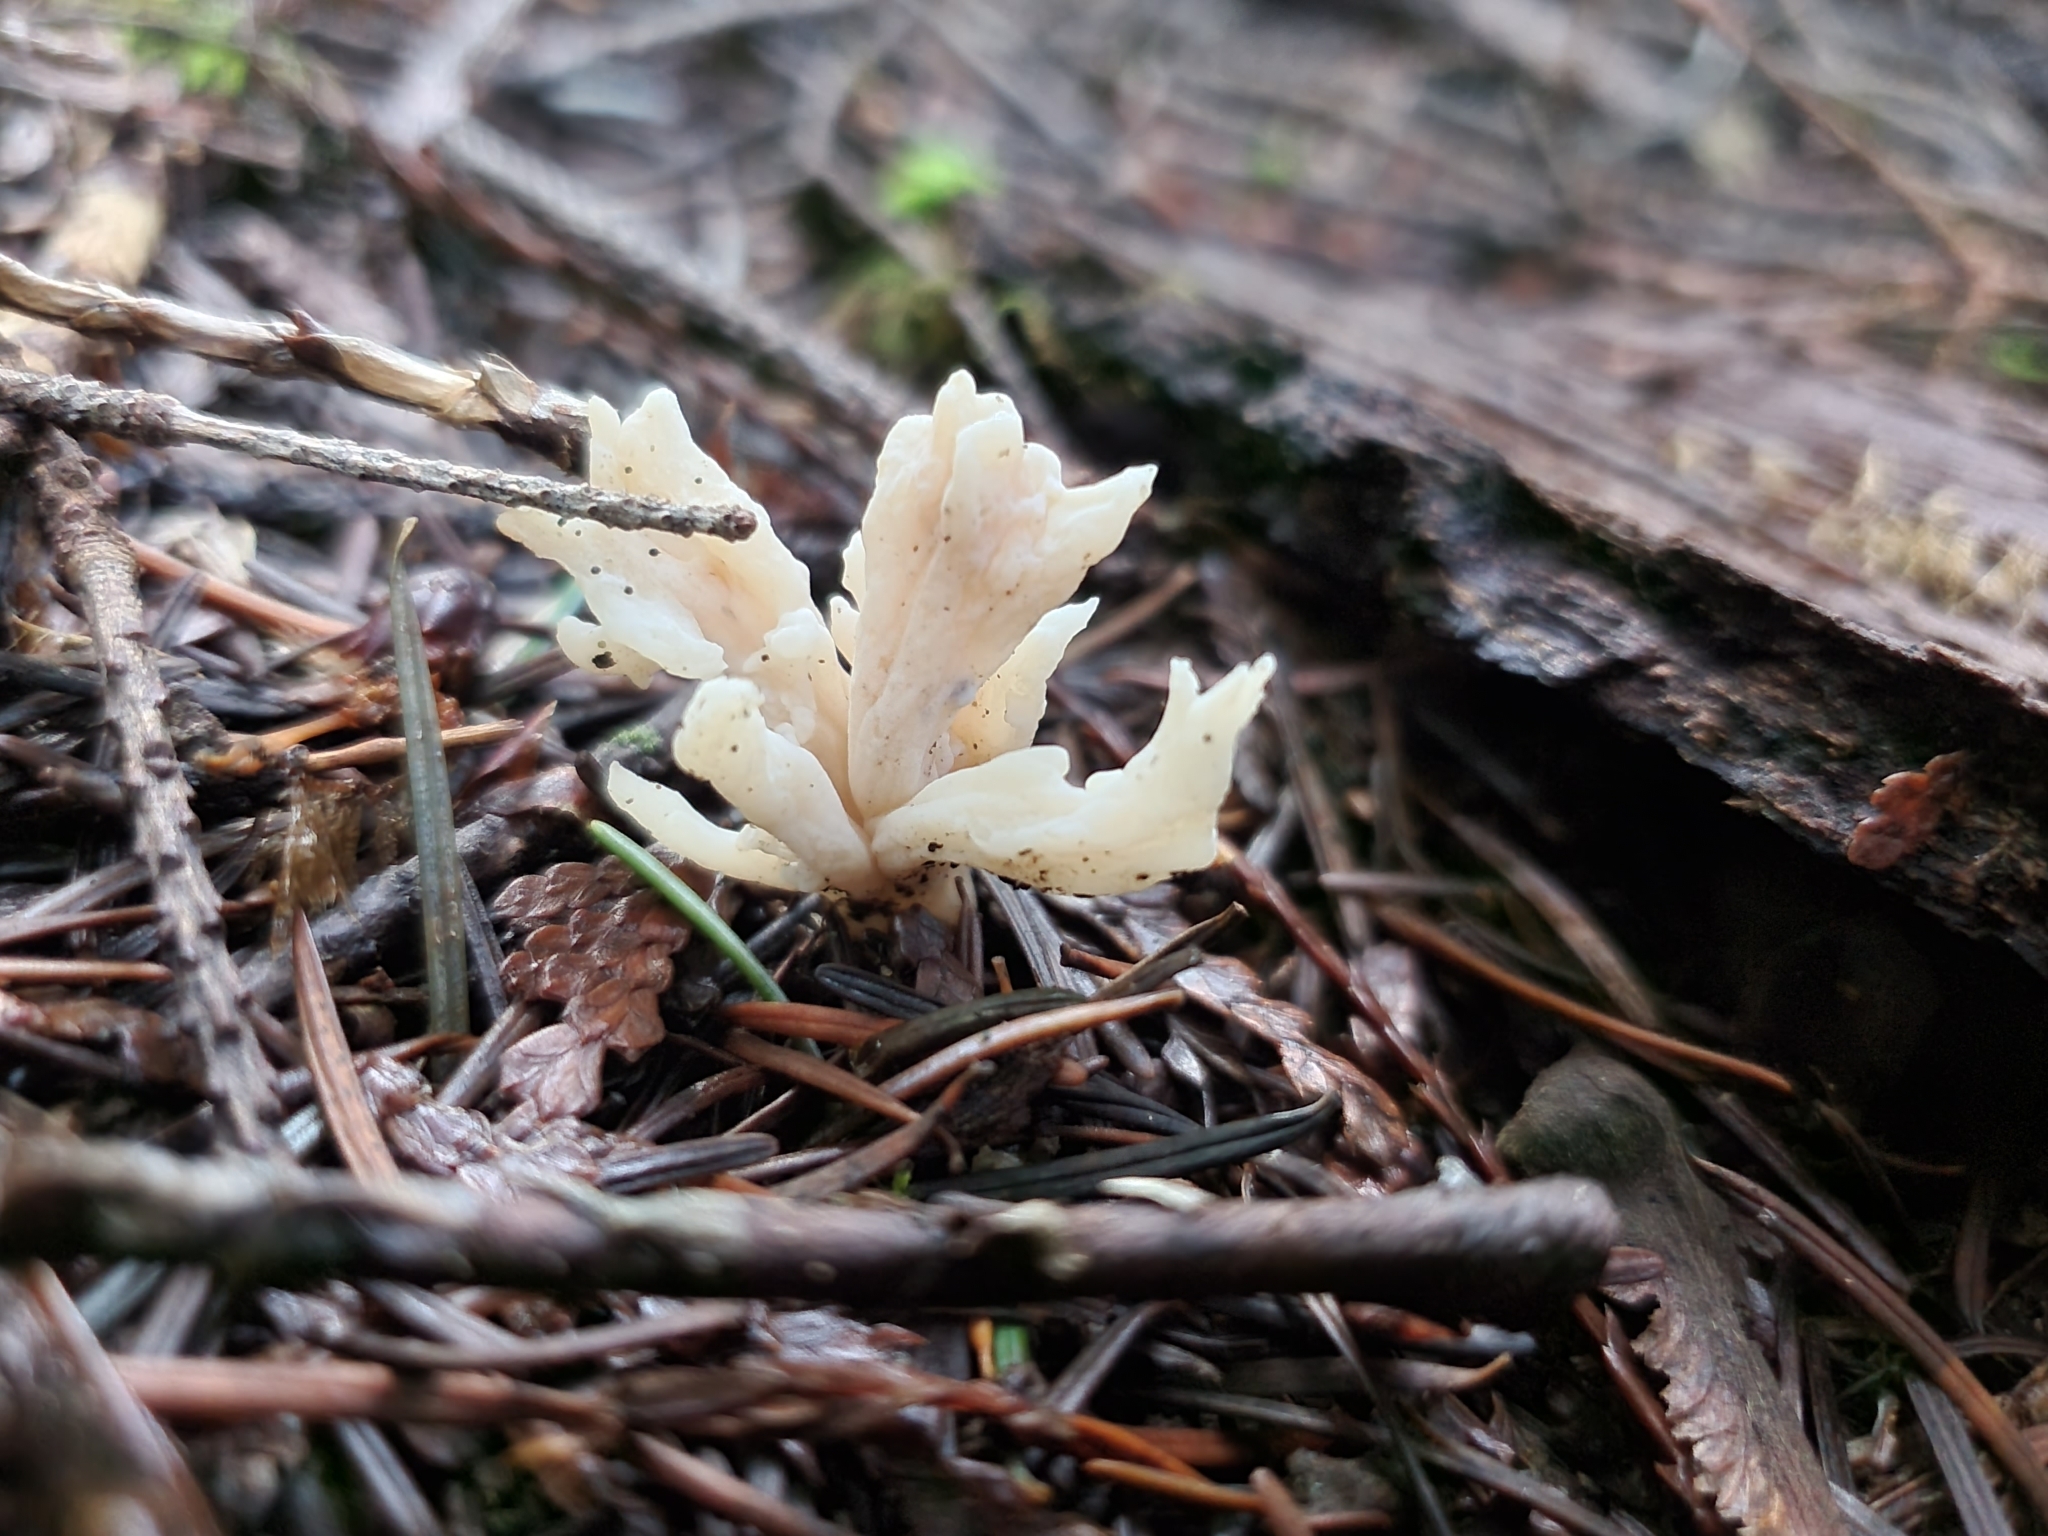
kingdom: Fungi
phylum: Basidiomycota
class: Agaricomycetes
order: Cantharellales
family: Hydnaceae
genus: Clavulina
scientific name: Clavulina rugosa
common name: Wrinkled club
